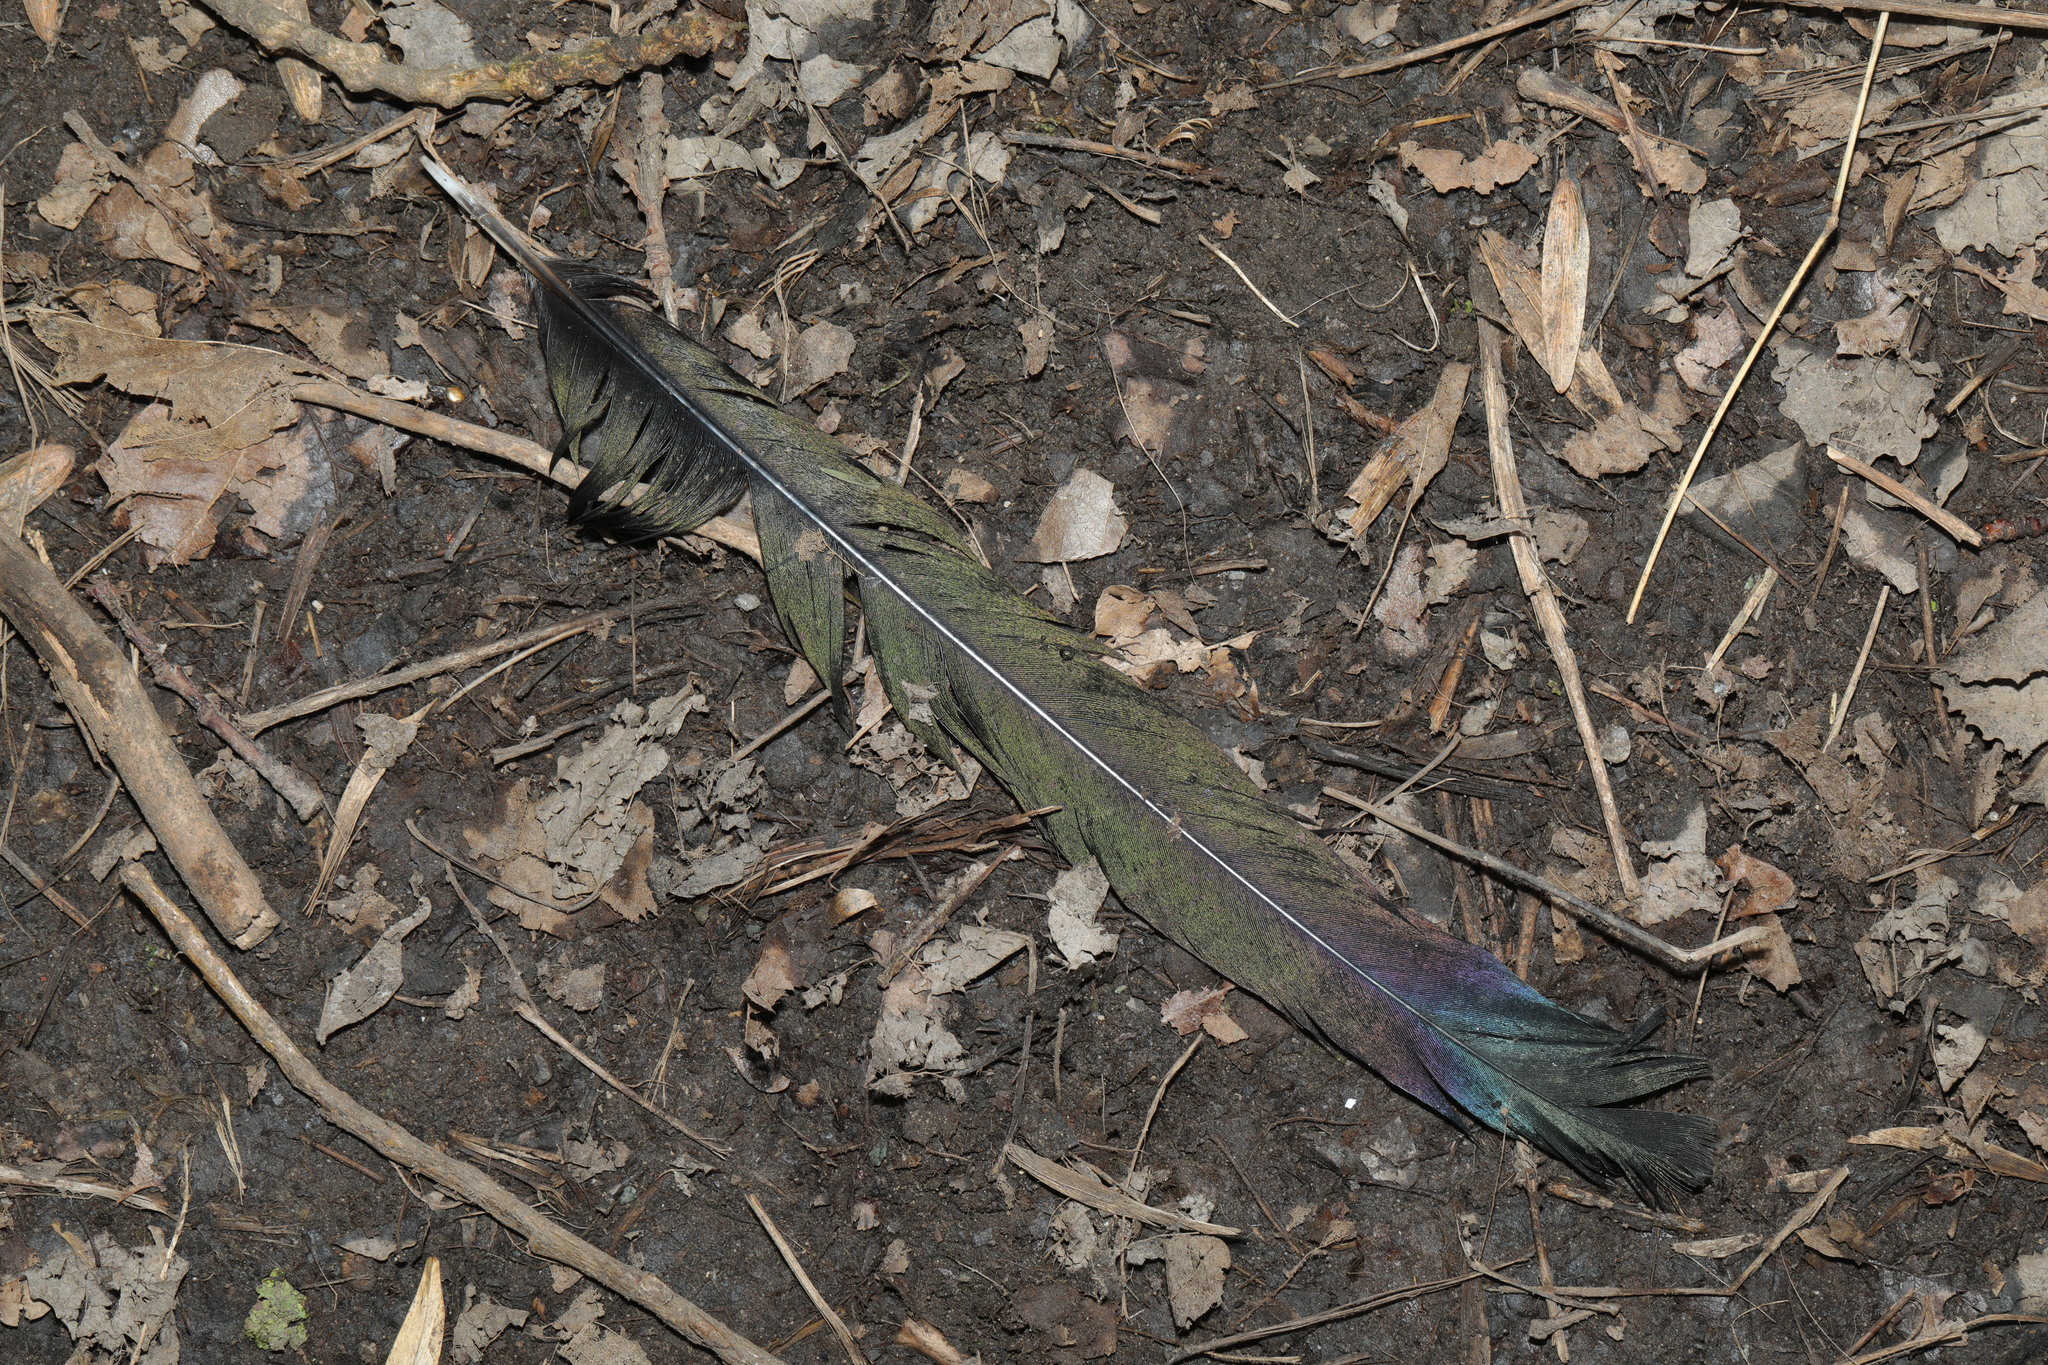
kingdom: Animalia
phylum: Chordata
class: Aves
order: Passeriformes
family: Corvidae
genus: Pica
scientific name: Pica pica
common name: Eurasian magpie
